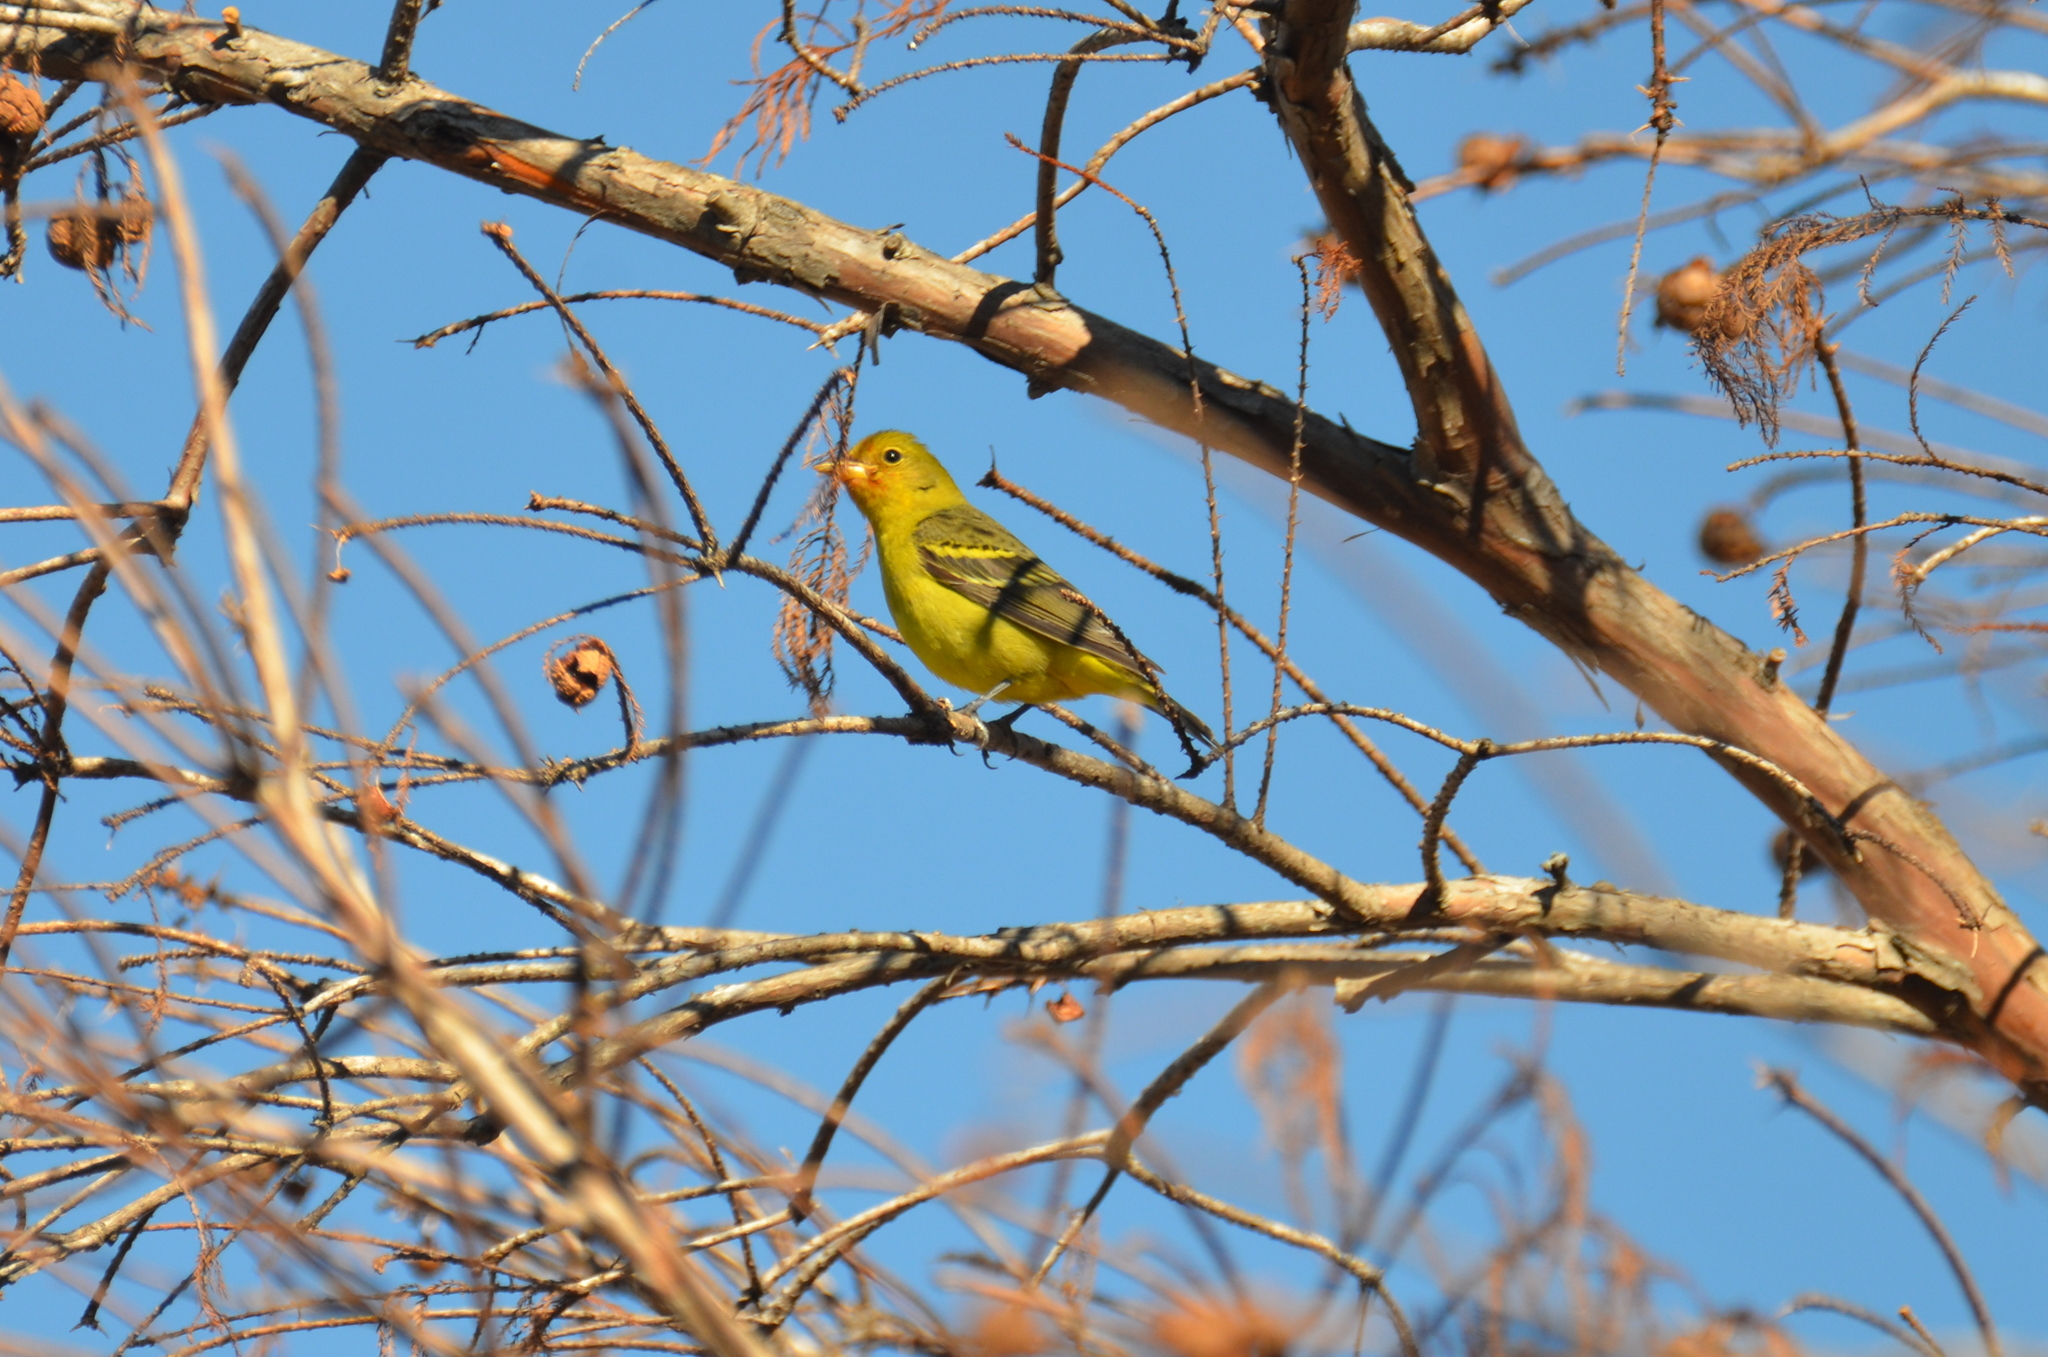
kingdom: Animalia
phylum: Chordata
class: Aves
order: Passeriformes
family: Cardinalidae
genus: Piranga
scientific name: Piranga ludoviciana
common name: Western tanager
